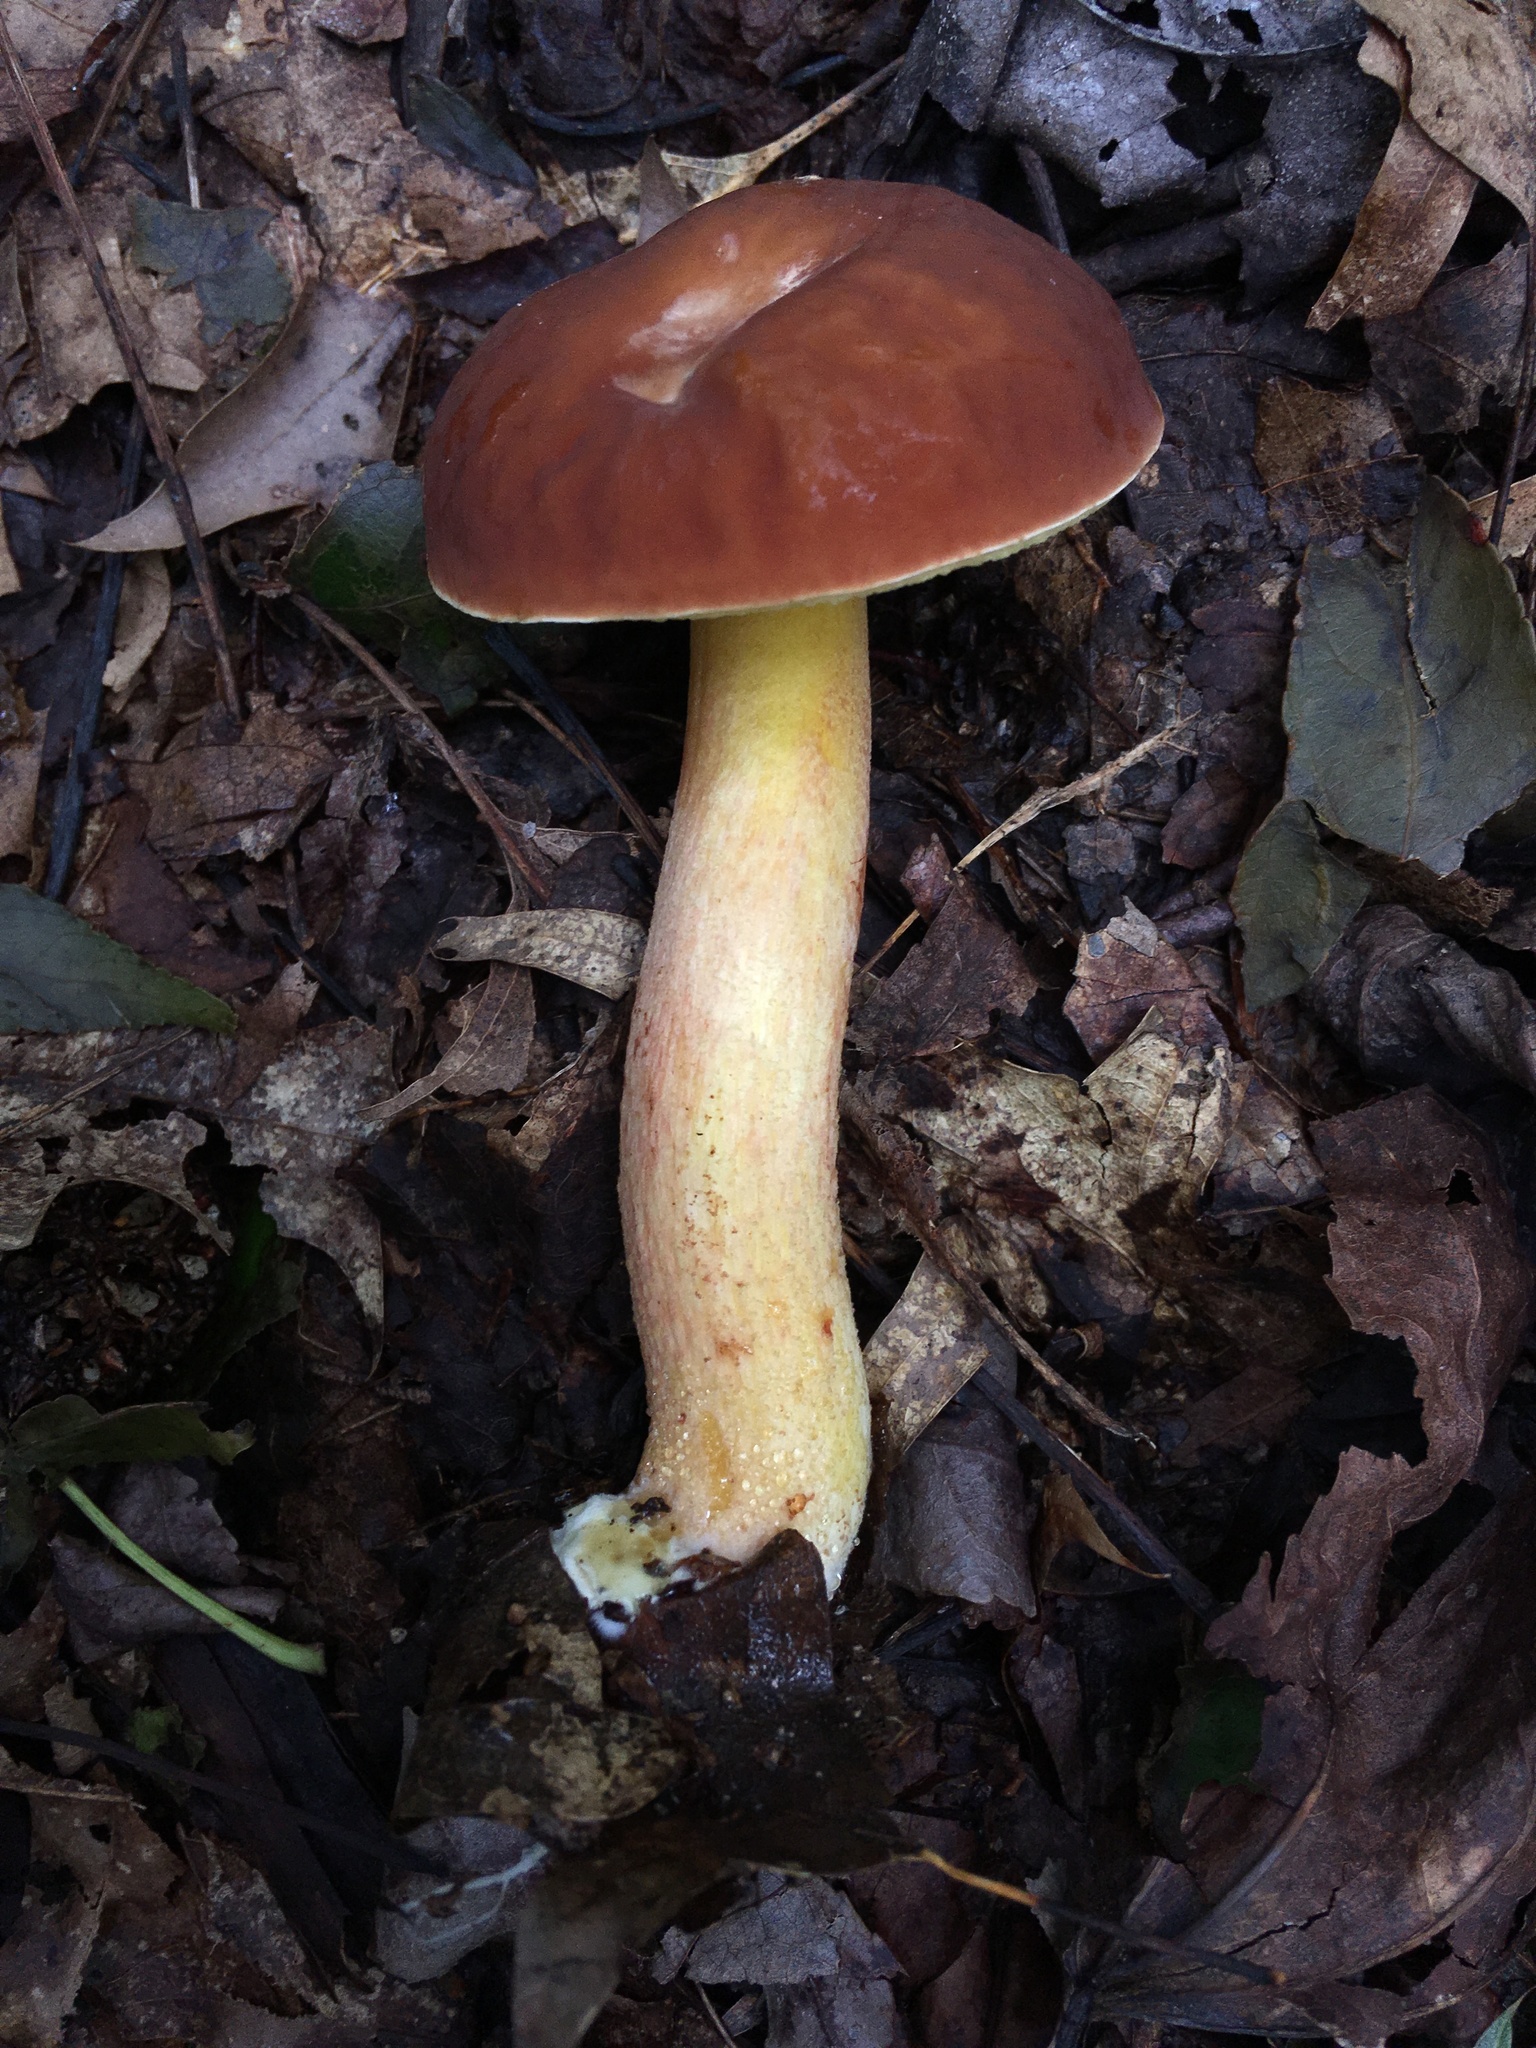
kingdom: Fungi
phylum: Basidiomycota
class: Agaricomycetes
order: Boletales
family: Boletaceae
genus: Hemileccinum
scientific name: Hemileccinum rubropunctum
